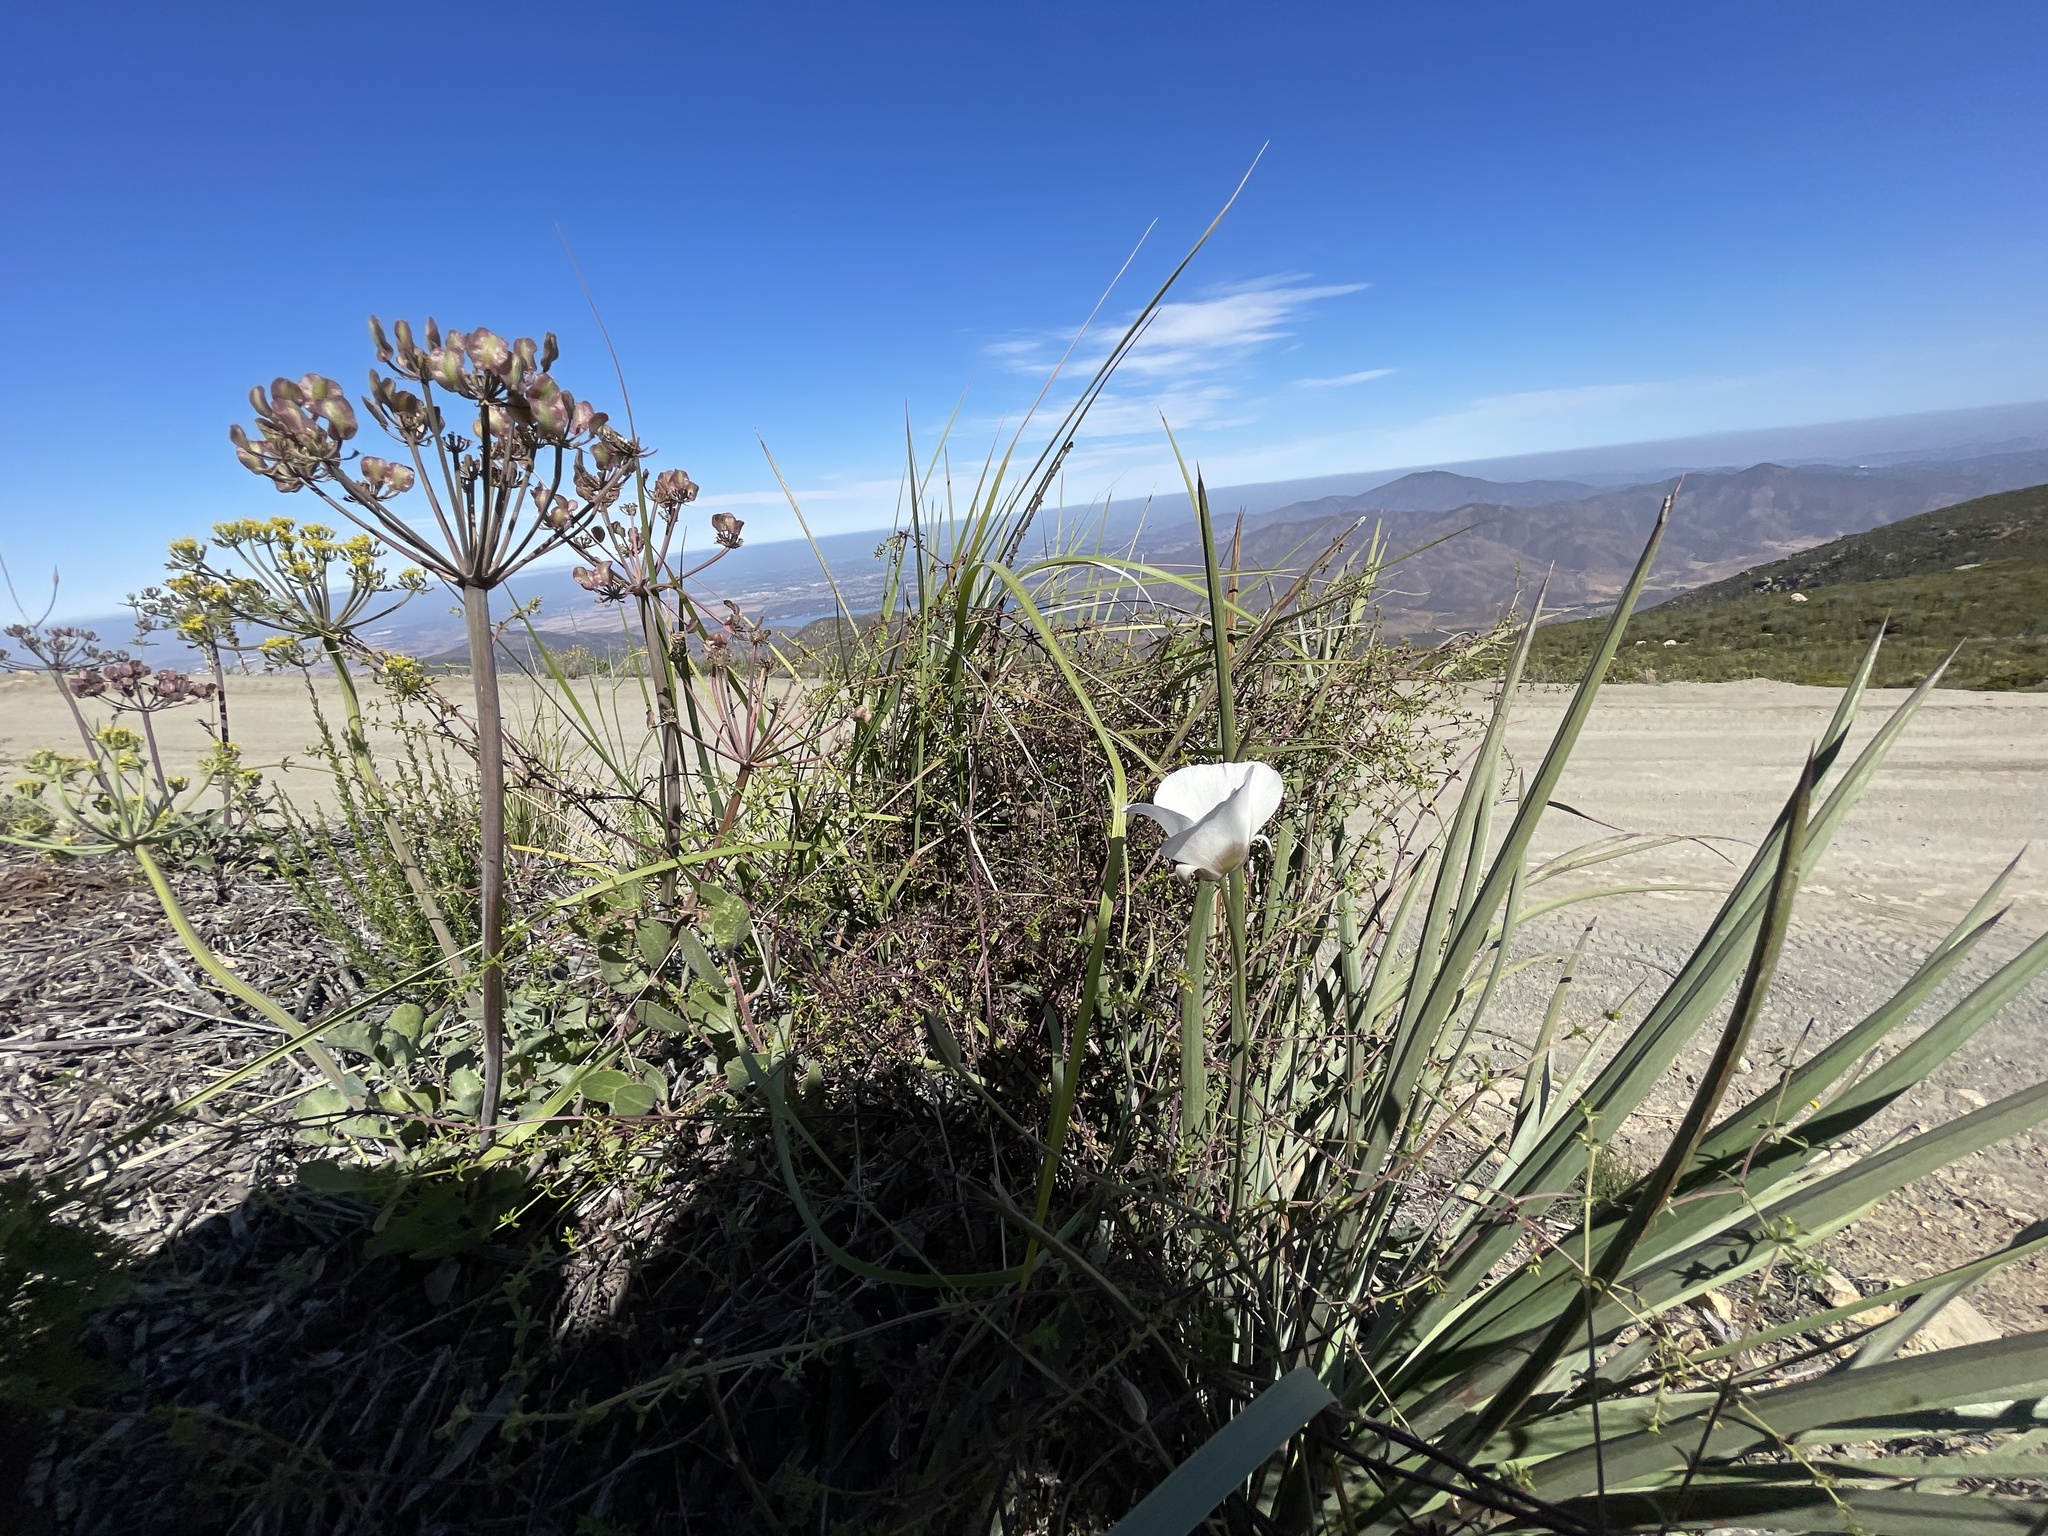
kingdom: Plantae
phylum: Tracheophyta
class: Liliopsida
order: Liliales
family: Liliaceae
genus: Calochortus
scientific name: Calochortus dunnii
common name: Dunn's mariposa-lily
